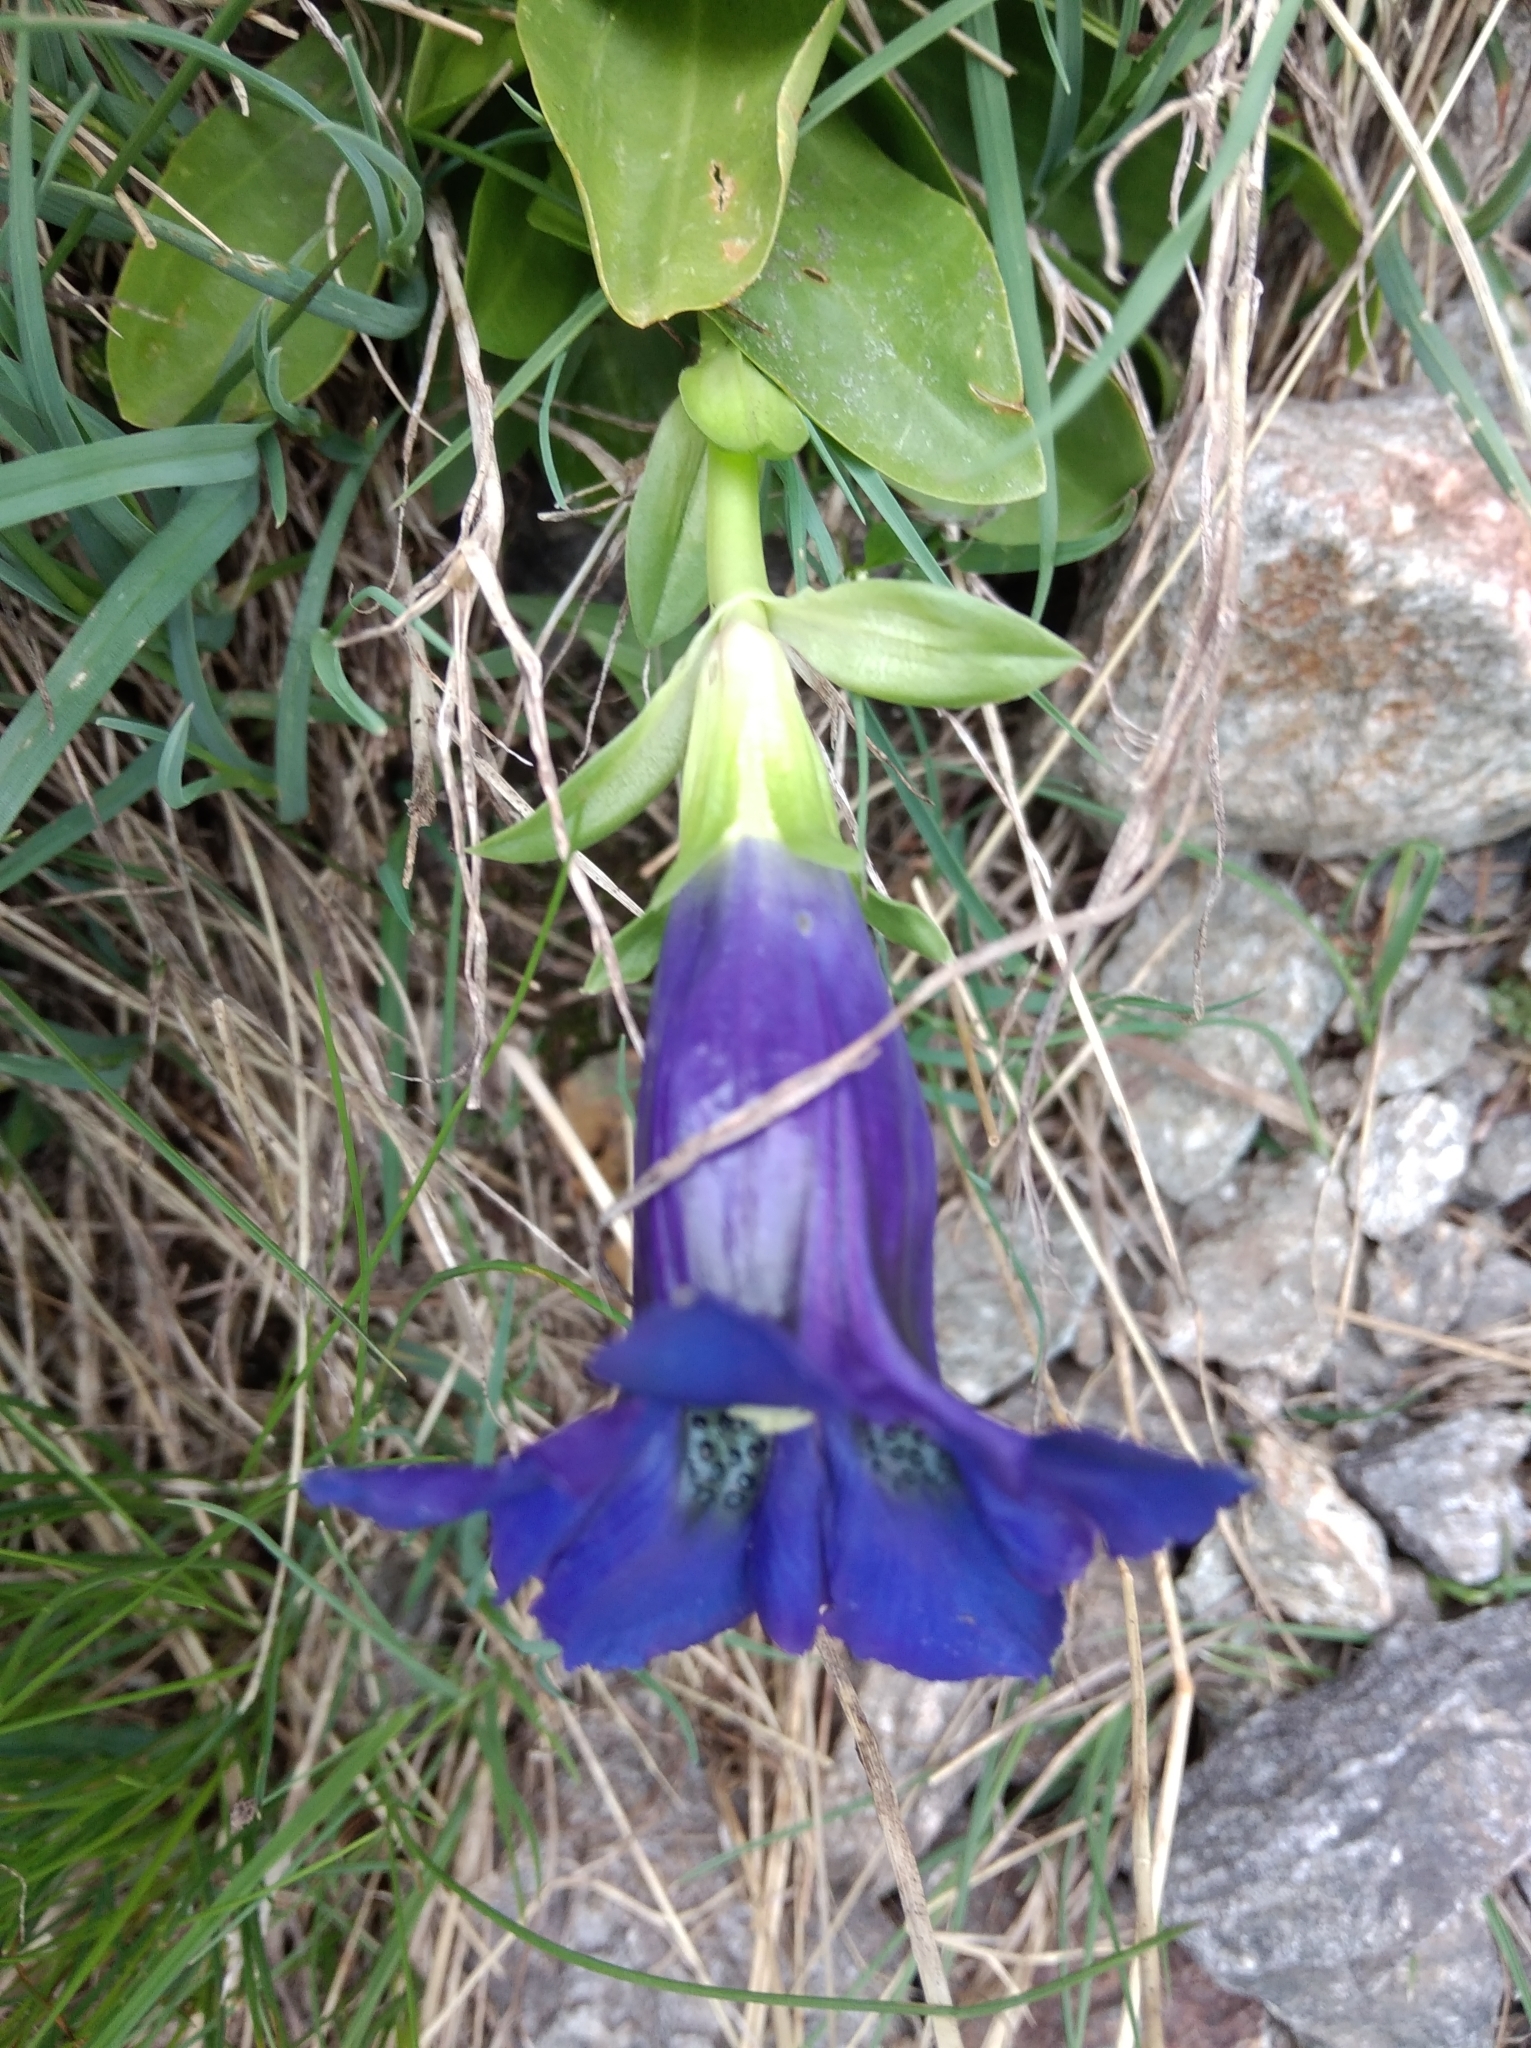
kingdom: Plantae
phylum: Tracheophyta
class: Magnoliopsida
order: Gentianales
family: Gentianaceae
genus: Gentiana
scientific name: Gentiana acaulis
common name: Trumpet gentian
